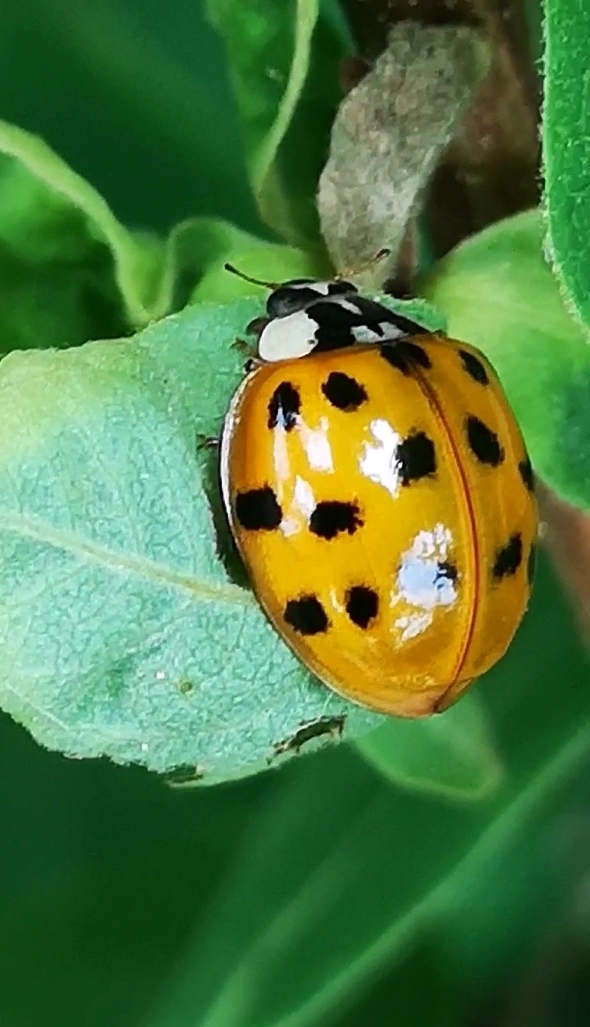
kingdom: Animalia
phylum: Arthropoda
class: Insecta
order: Coleoptera
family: Coccinellidae
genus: Harmonia
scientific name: Harmonia axyridis
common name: Harlequin ladybird
